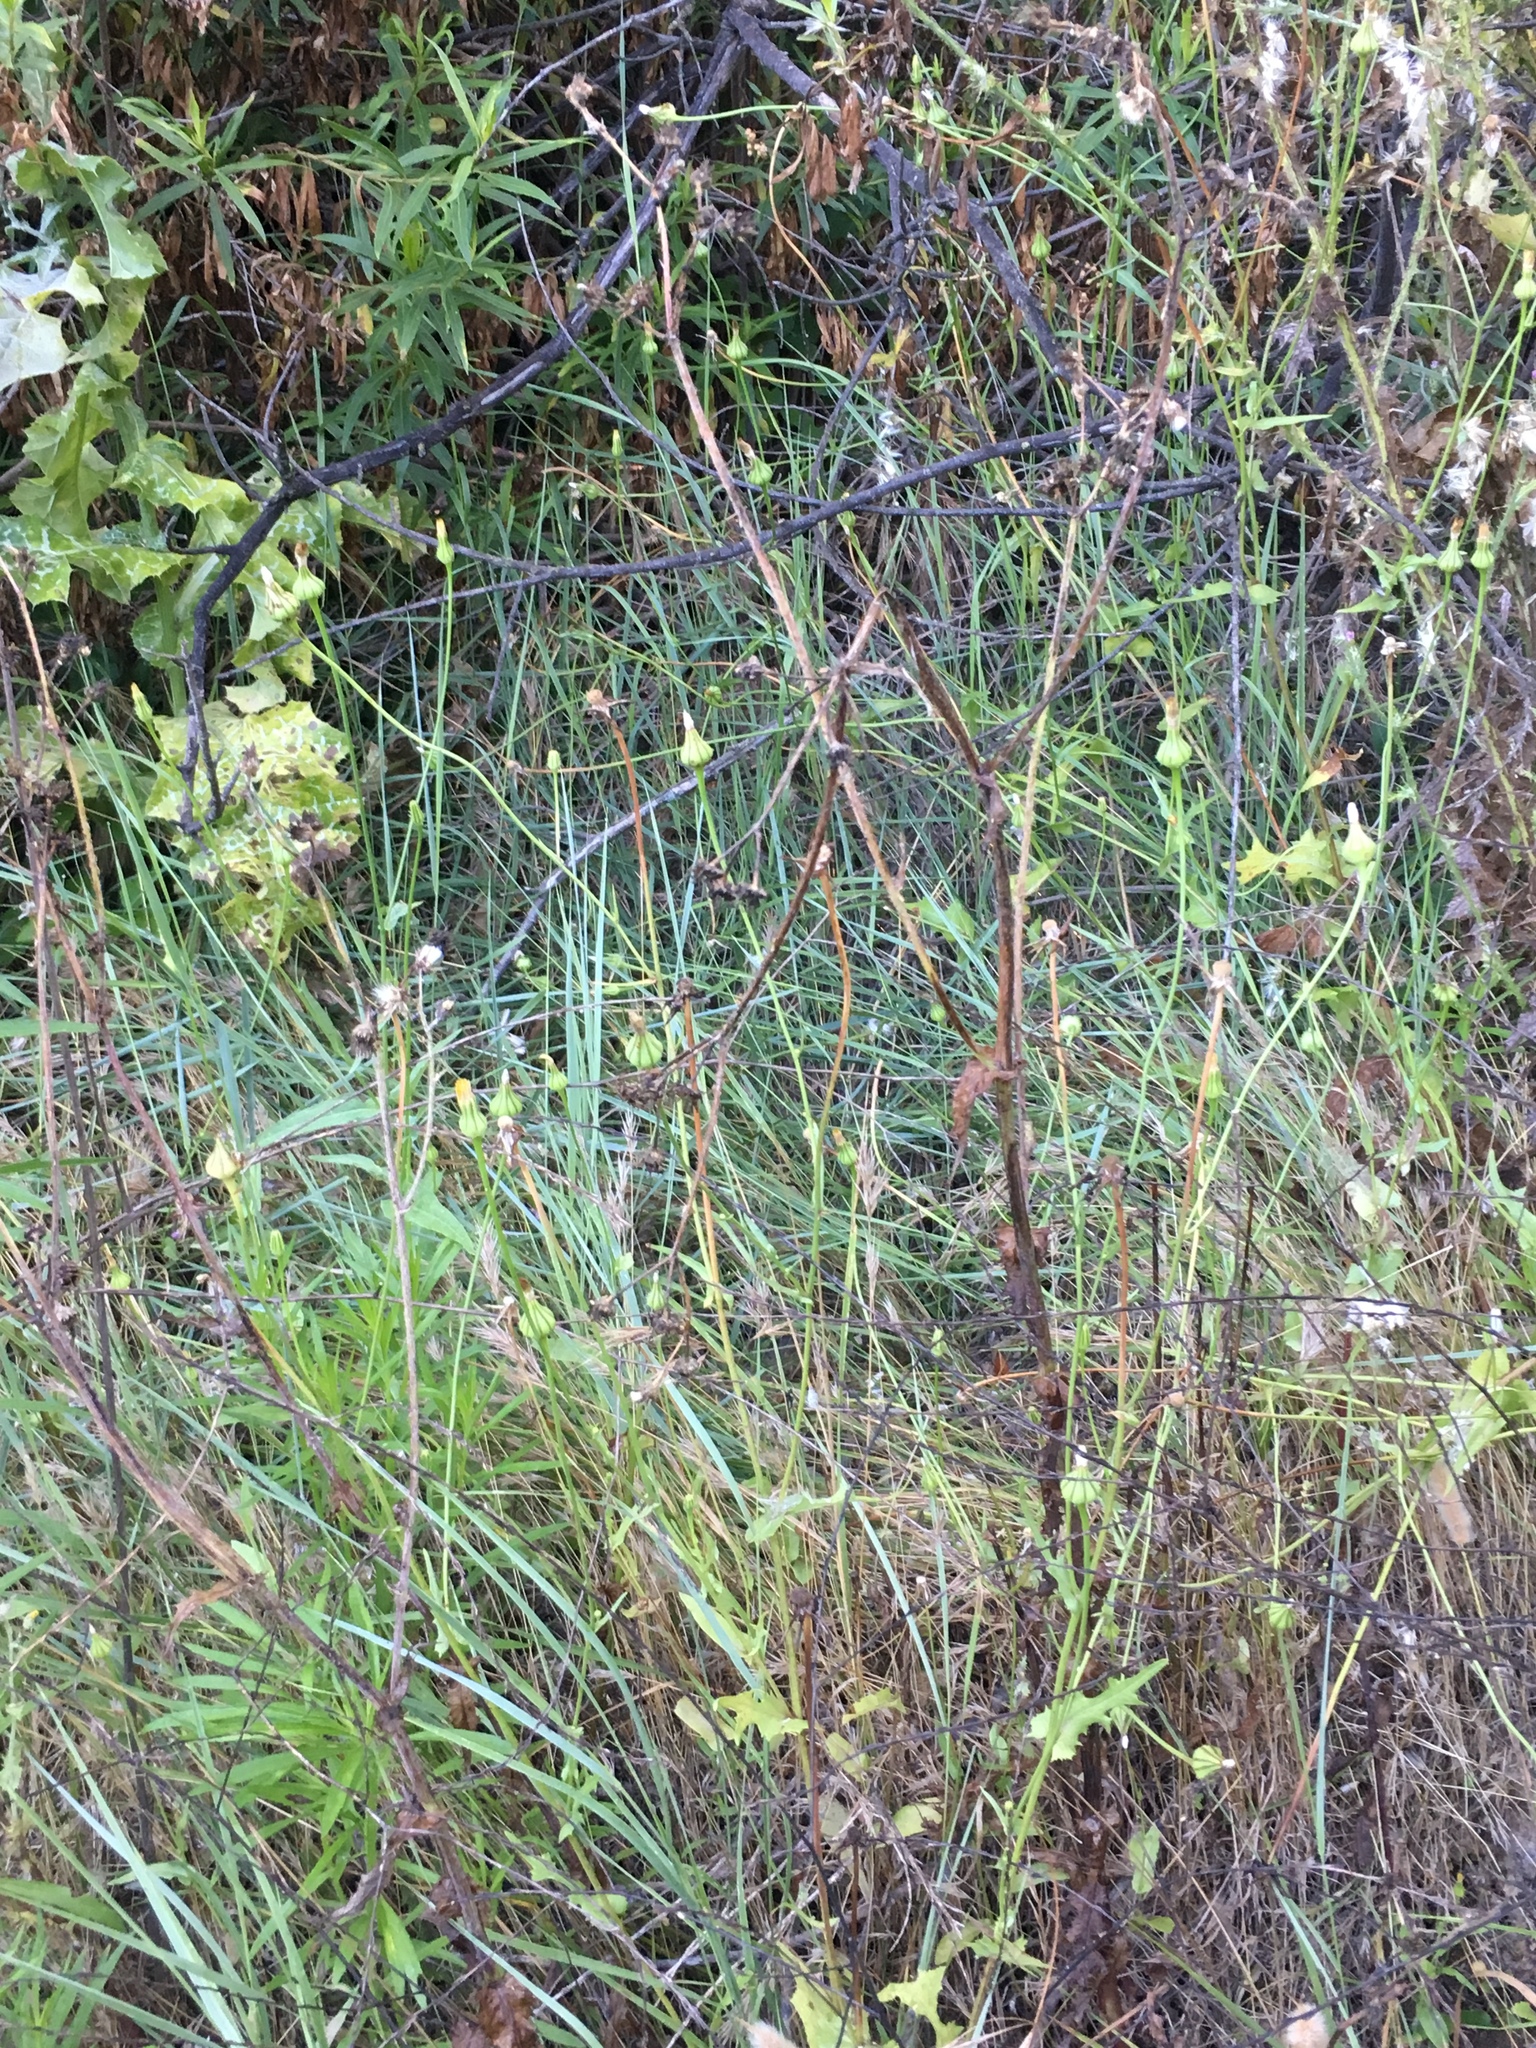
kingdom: Plantae
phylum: Tracheophyta
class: Magnoliopsida
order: Asterales
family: Asteraceae
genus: Urospermum
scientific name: Urospermum picroides
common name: False hawkbit
